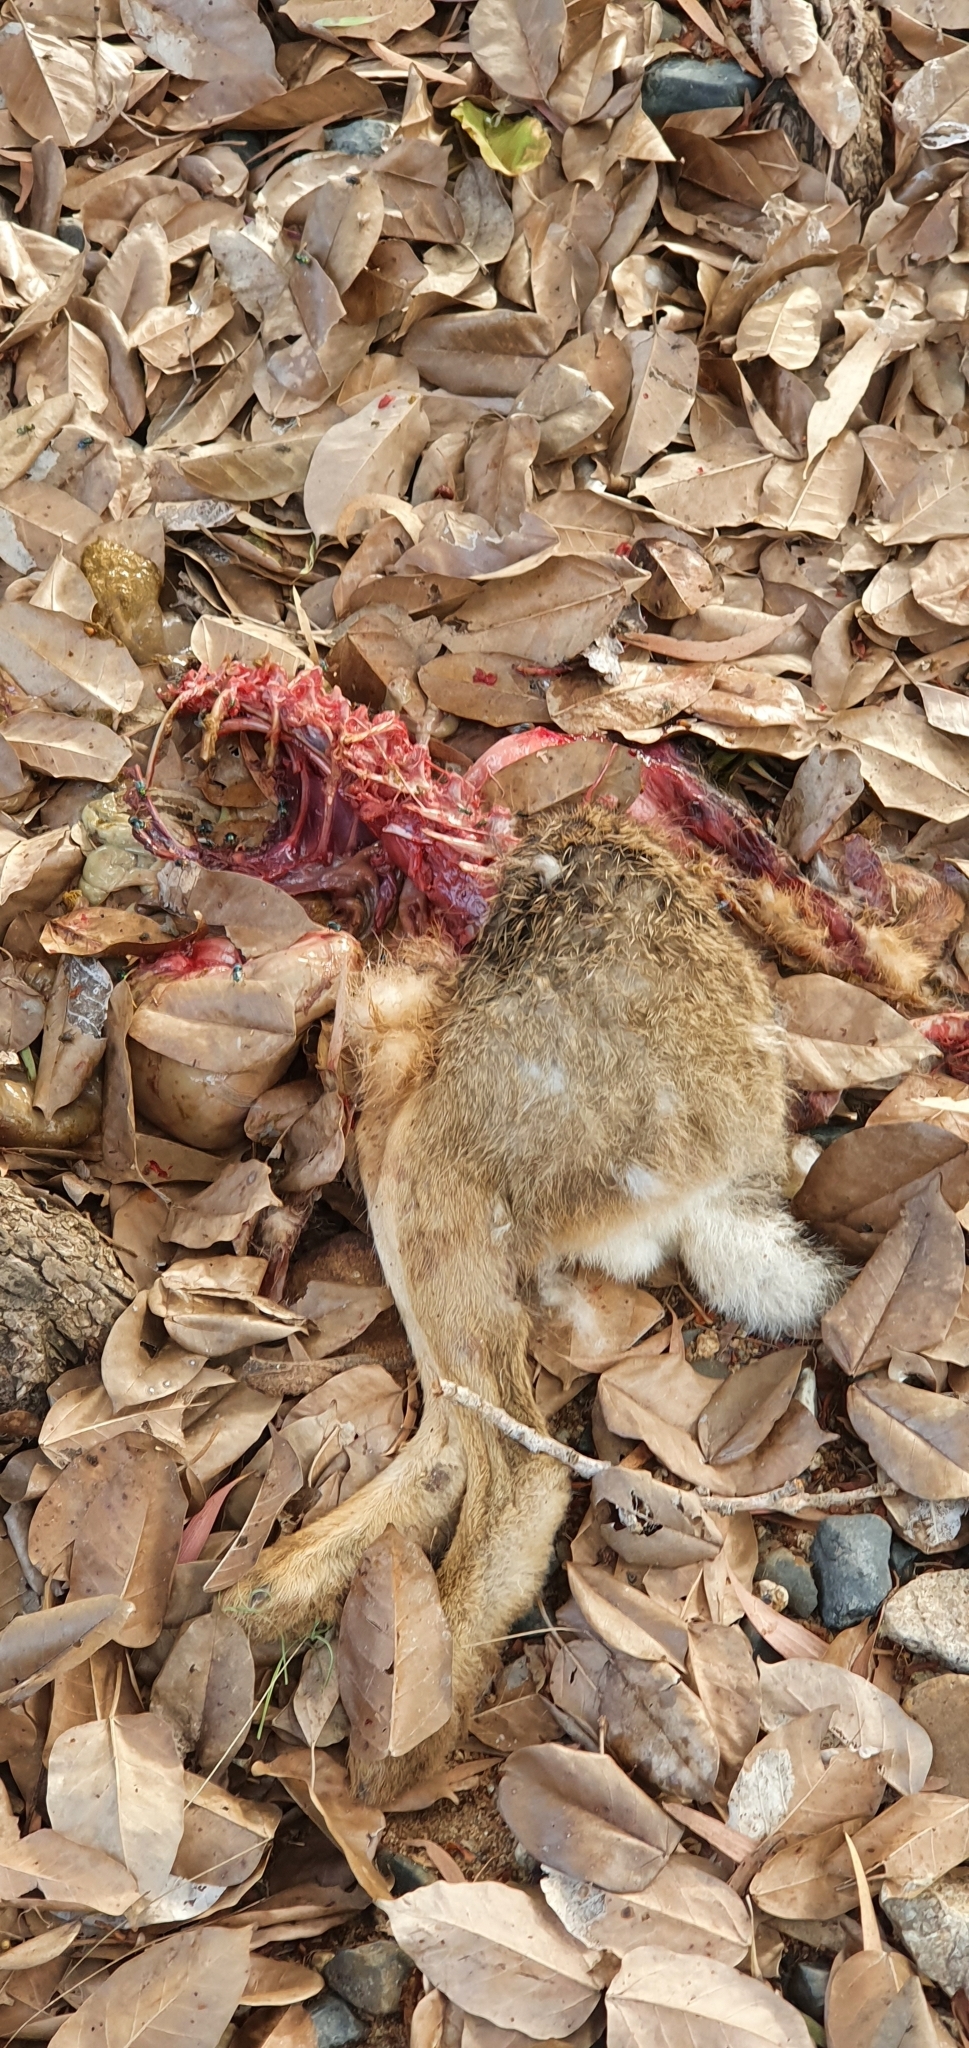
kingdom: Animalia
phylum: Chordata
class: Mammalia
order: Lagomorpha
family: Leporidae
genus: Lepus
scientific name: Lepus europaeus
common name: European hare
